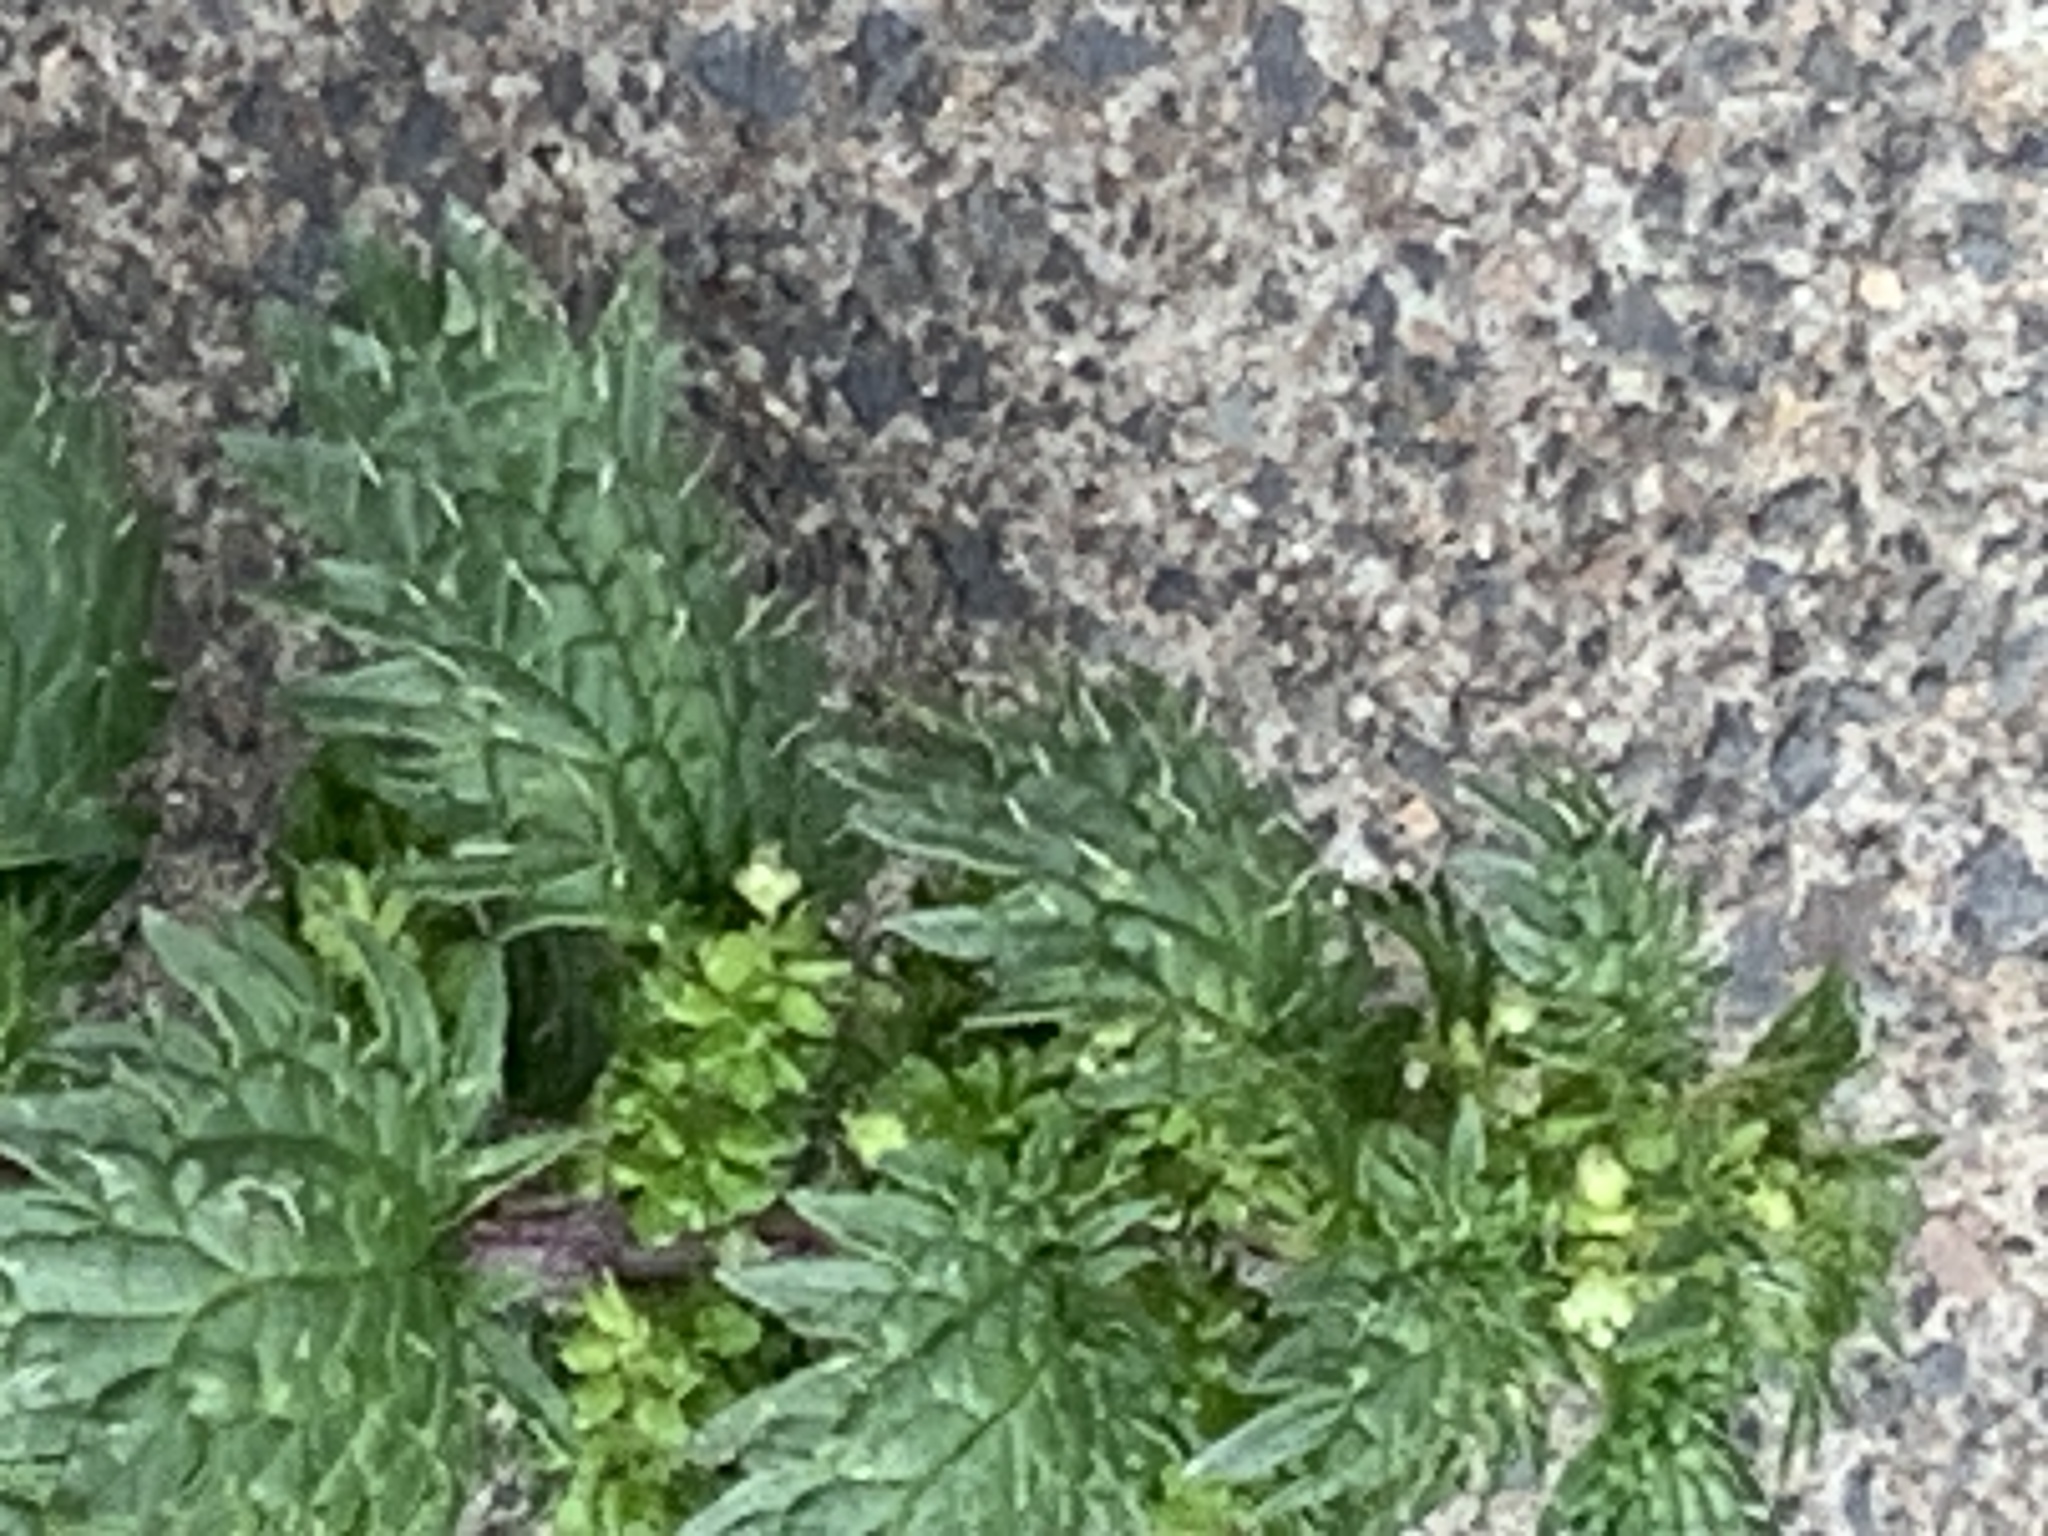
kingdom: Plantae
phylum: Tracheophyta
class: Magnoliopsida
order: Rosales
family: Urticaceae
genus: Urtica
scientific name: Urtica urens
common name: Dwarf nettle
